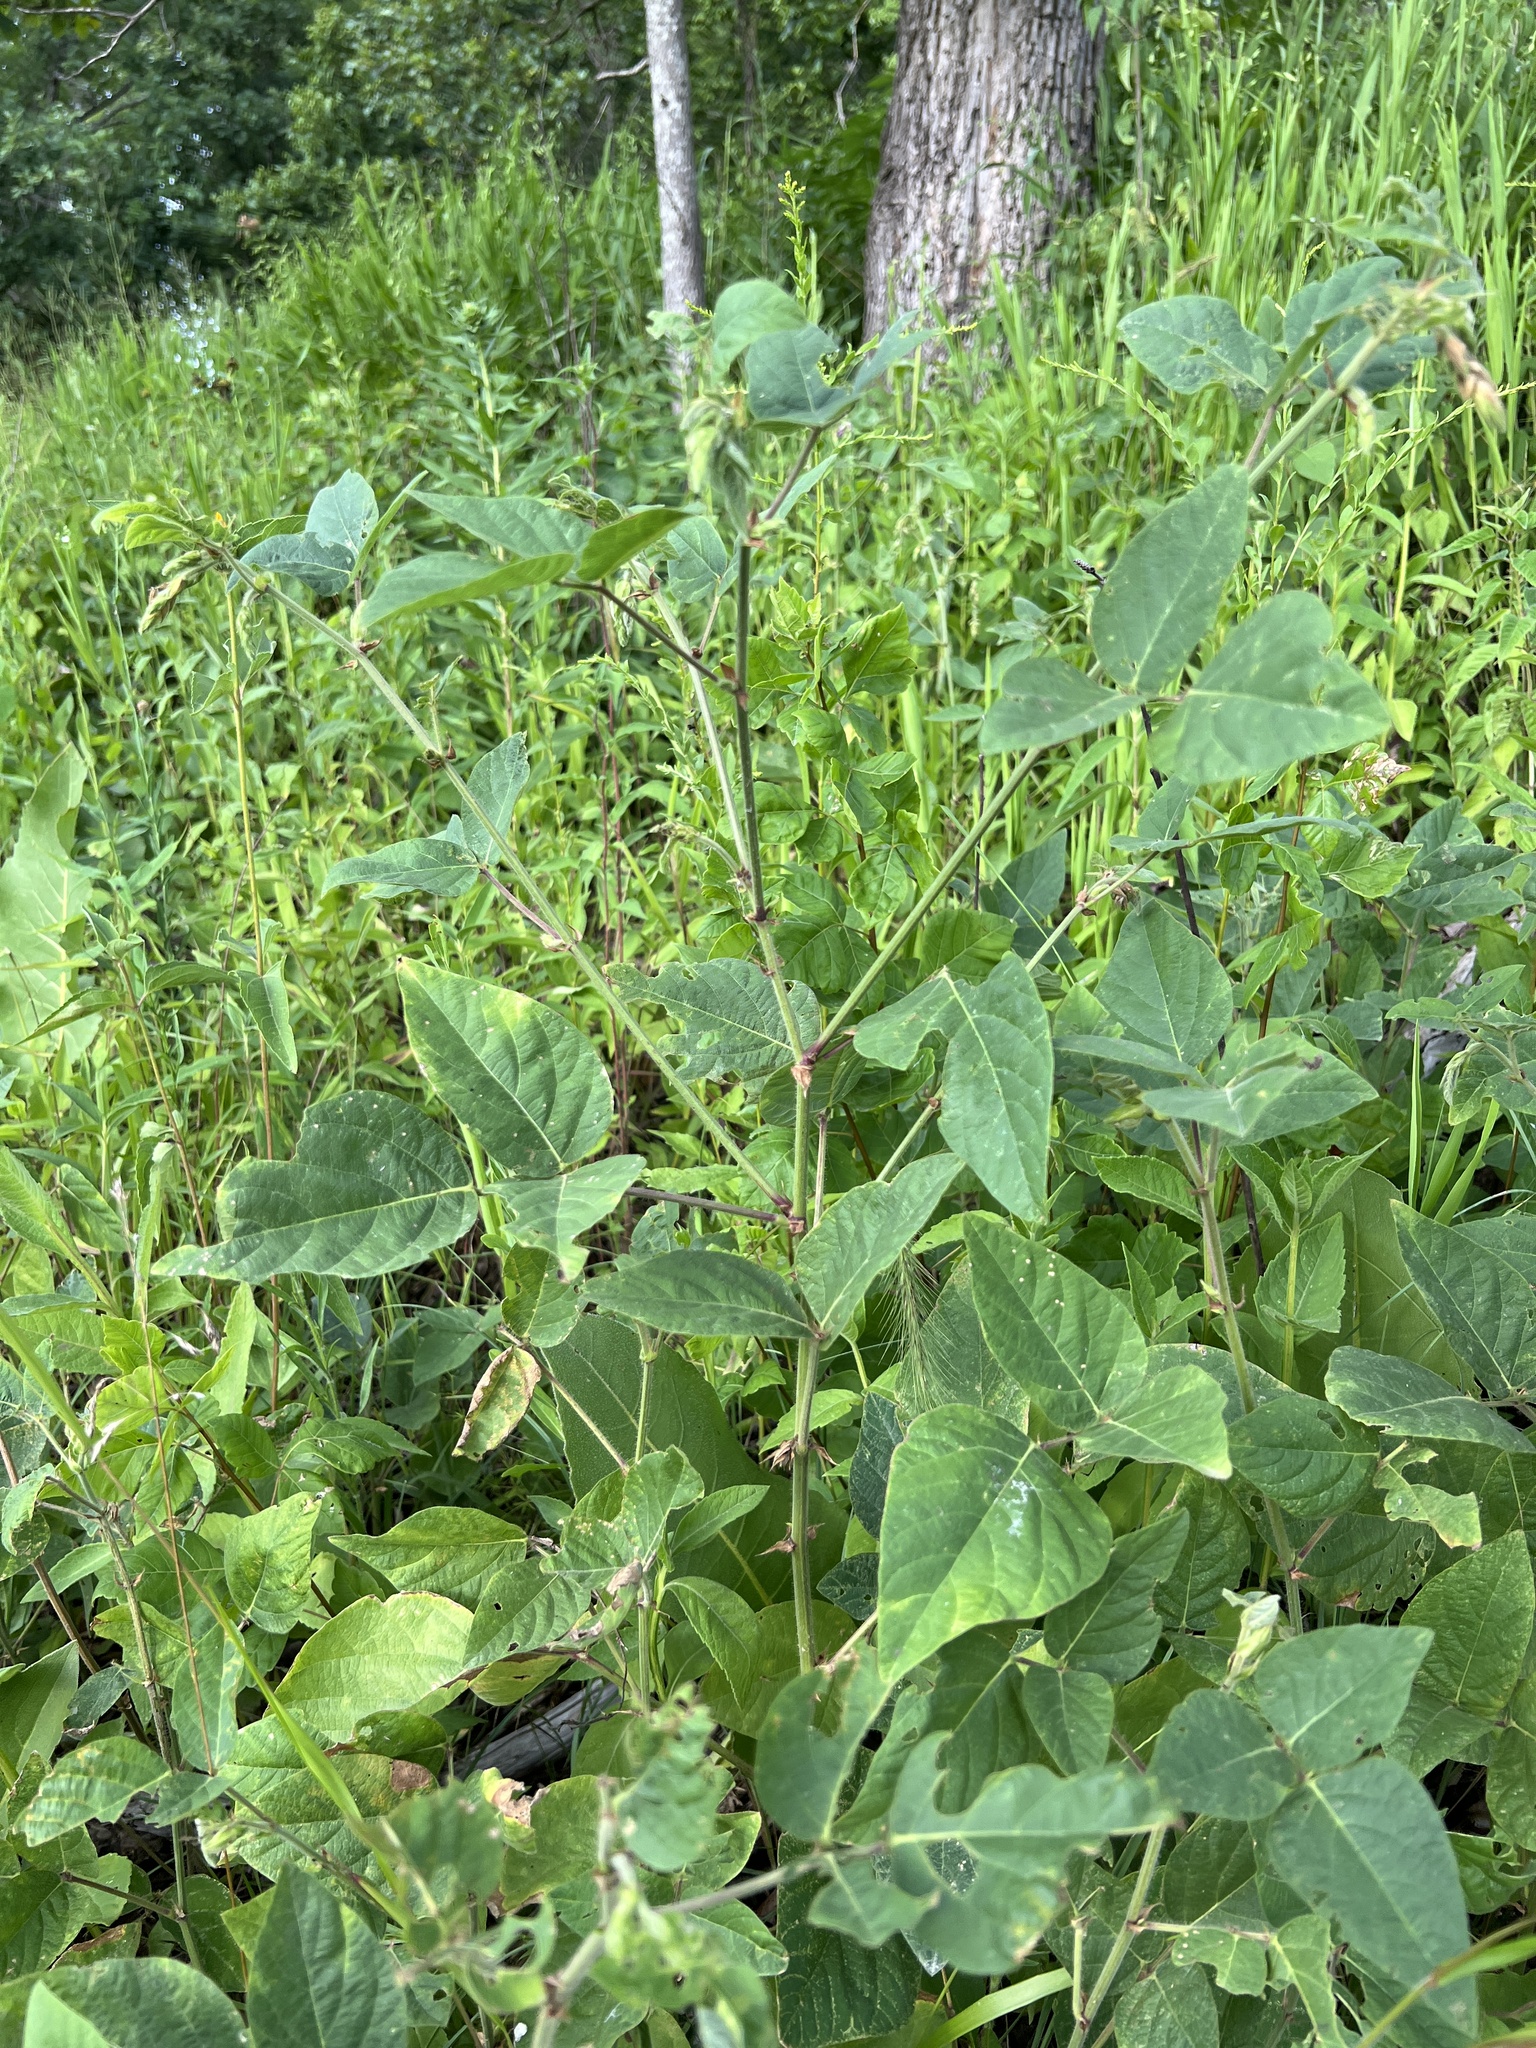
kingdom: Plantae
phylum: Tracheophyta
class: Magnoliopsida
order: Fabales
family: Fabaceae
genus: Desmodium
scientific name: Desmodium canescens
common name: Hoary tick-clover
